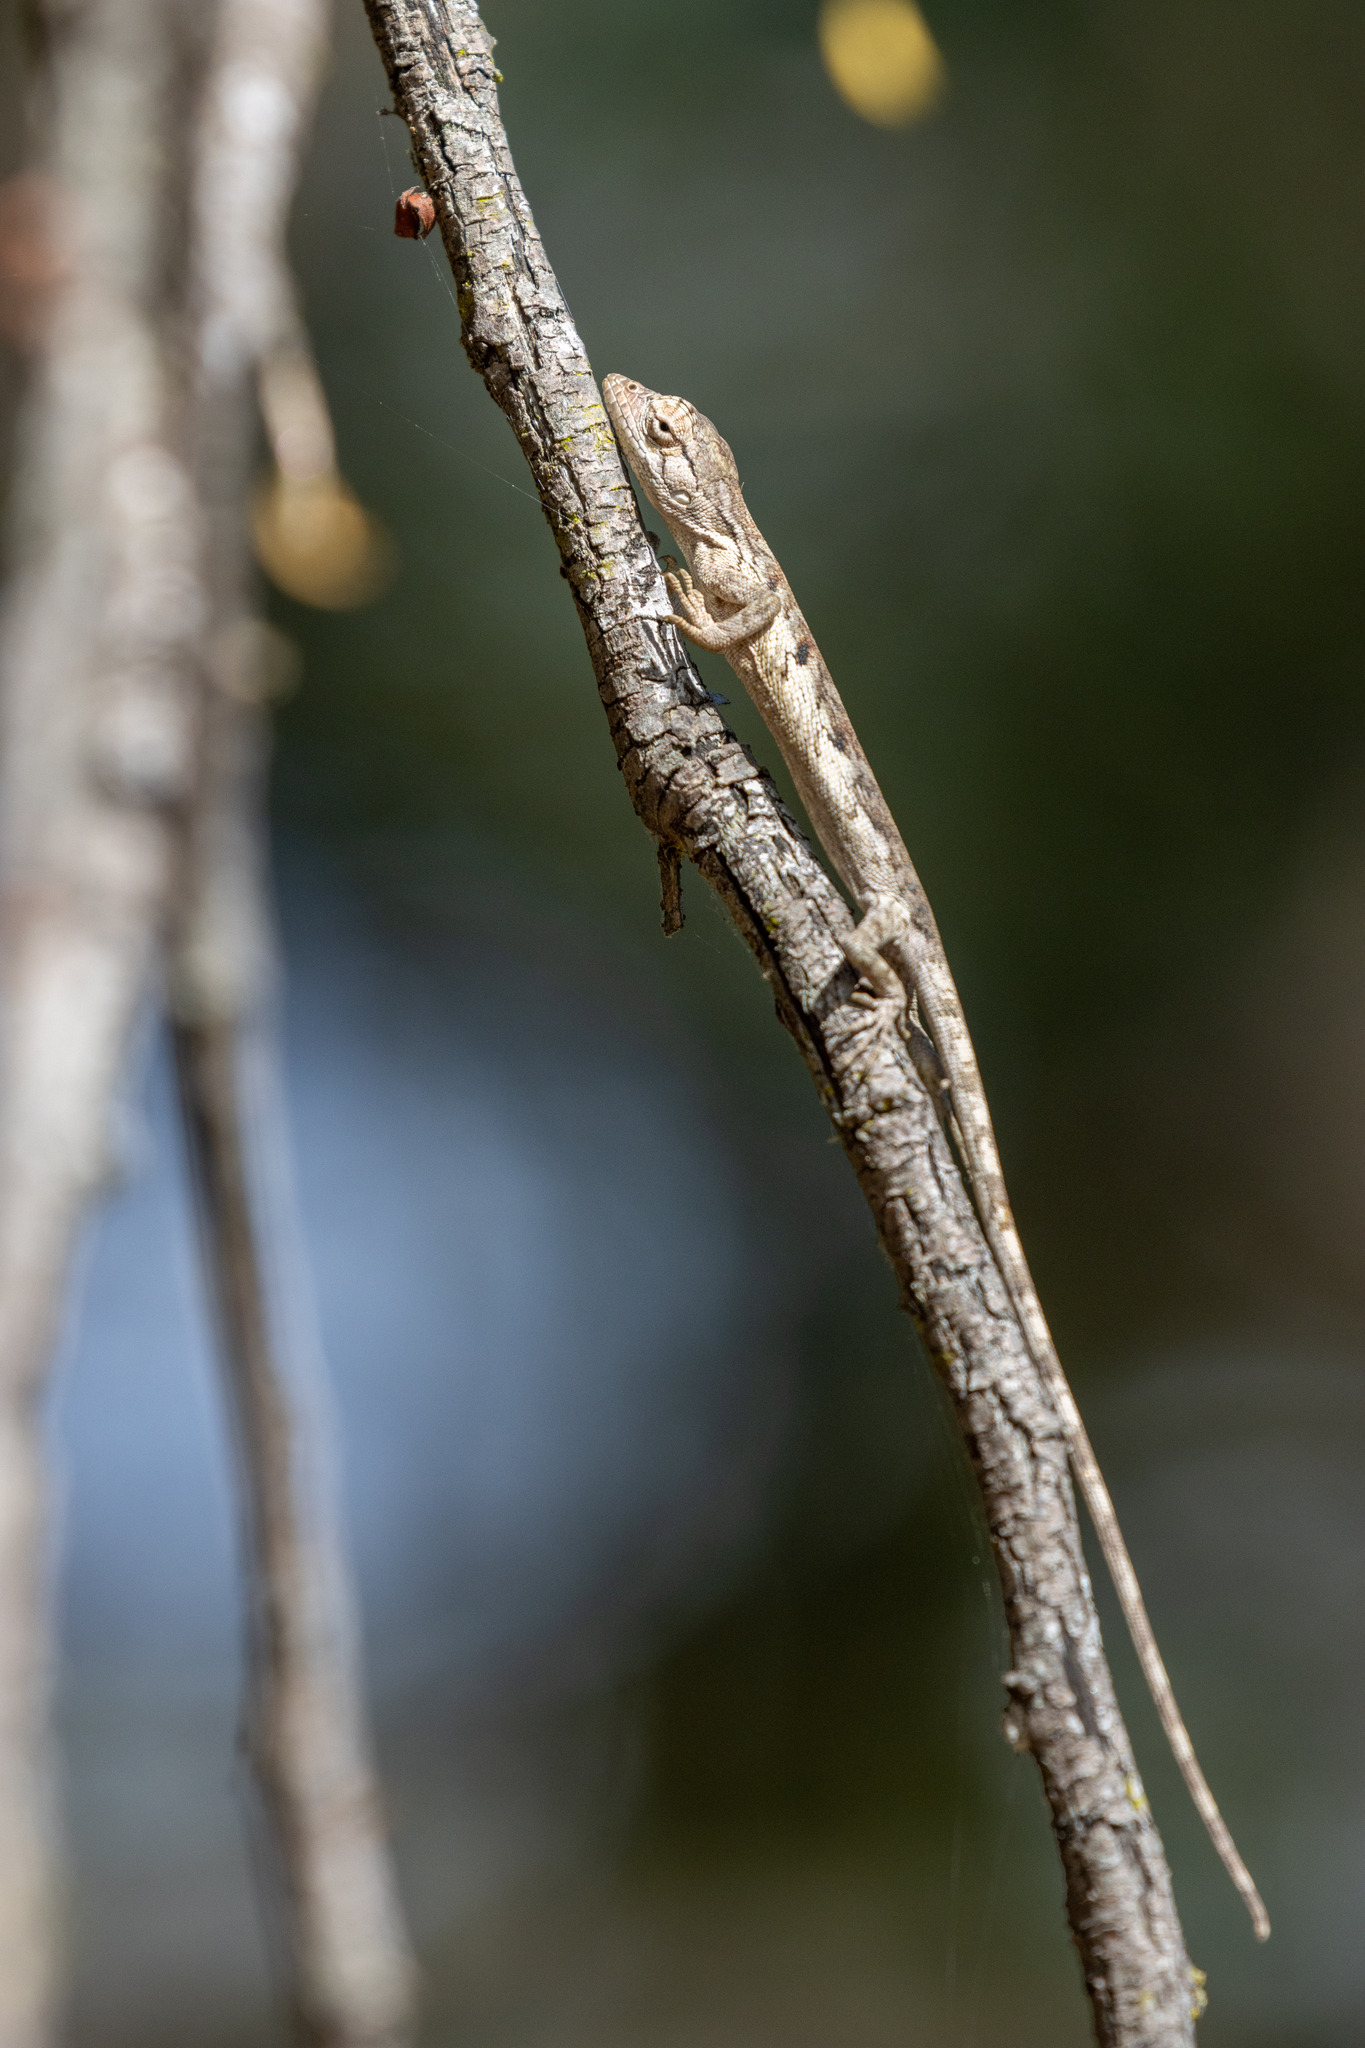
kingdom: Animalia
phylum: Chordata
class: Squamata
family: Polychrotidae
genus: Polychrus
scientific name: Polychrus acutirostris
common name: Brazilian bush anole
